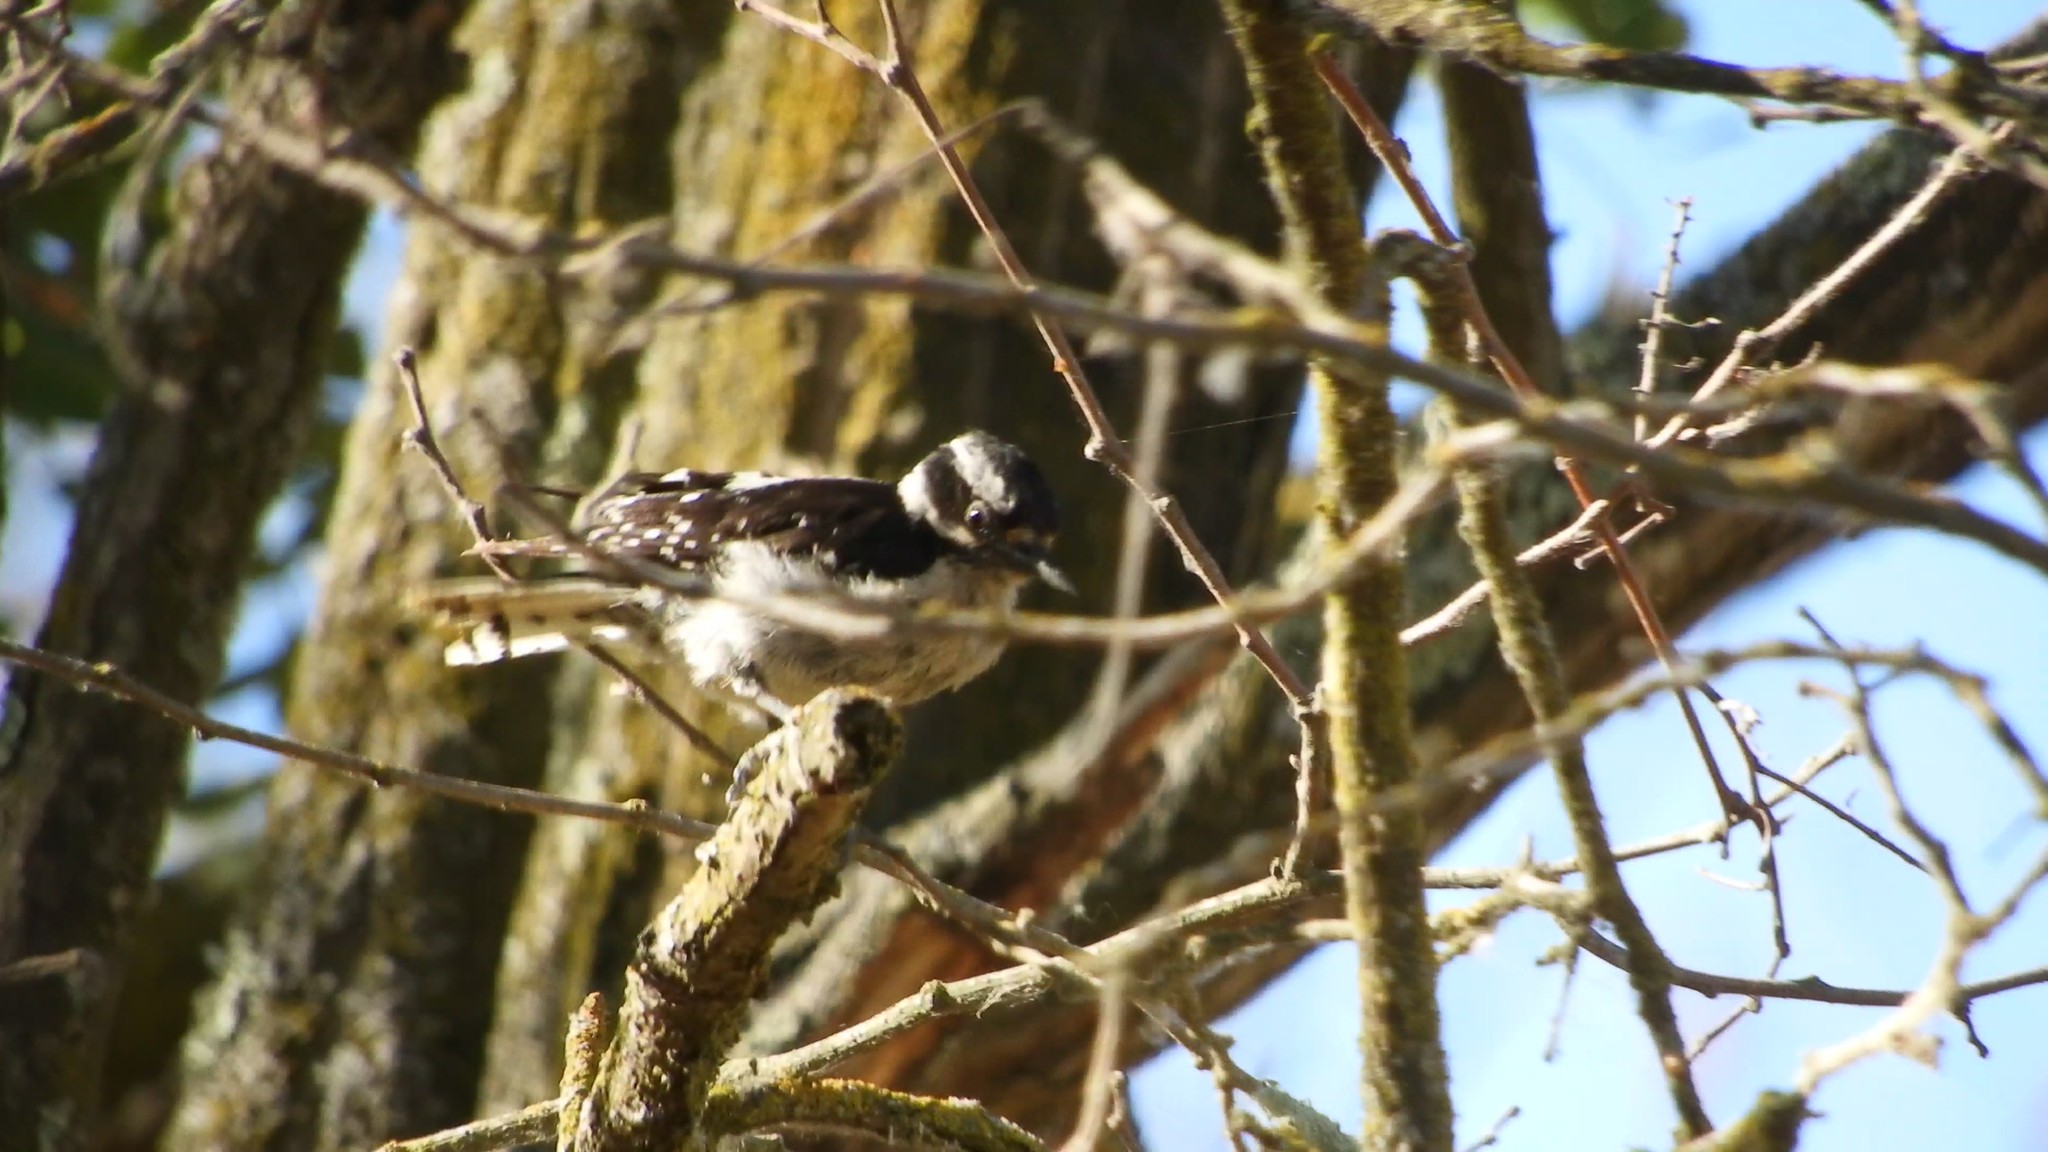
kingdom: Animalia
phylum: Chordata
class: Aves
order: Piciformes
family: Picidae
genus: Dryobates
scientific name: Dryobates pubescens
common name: Downy woodpecker
